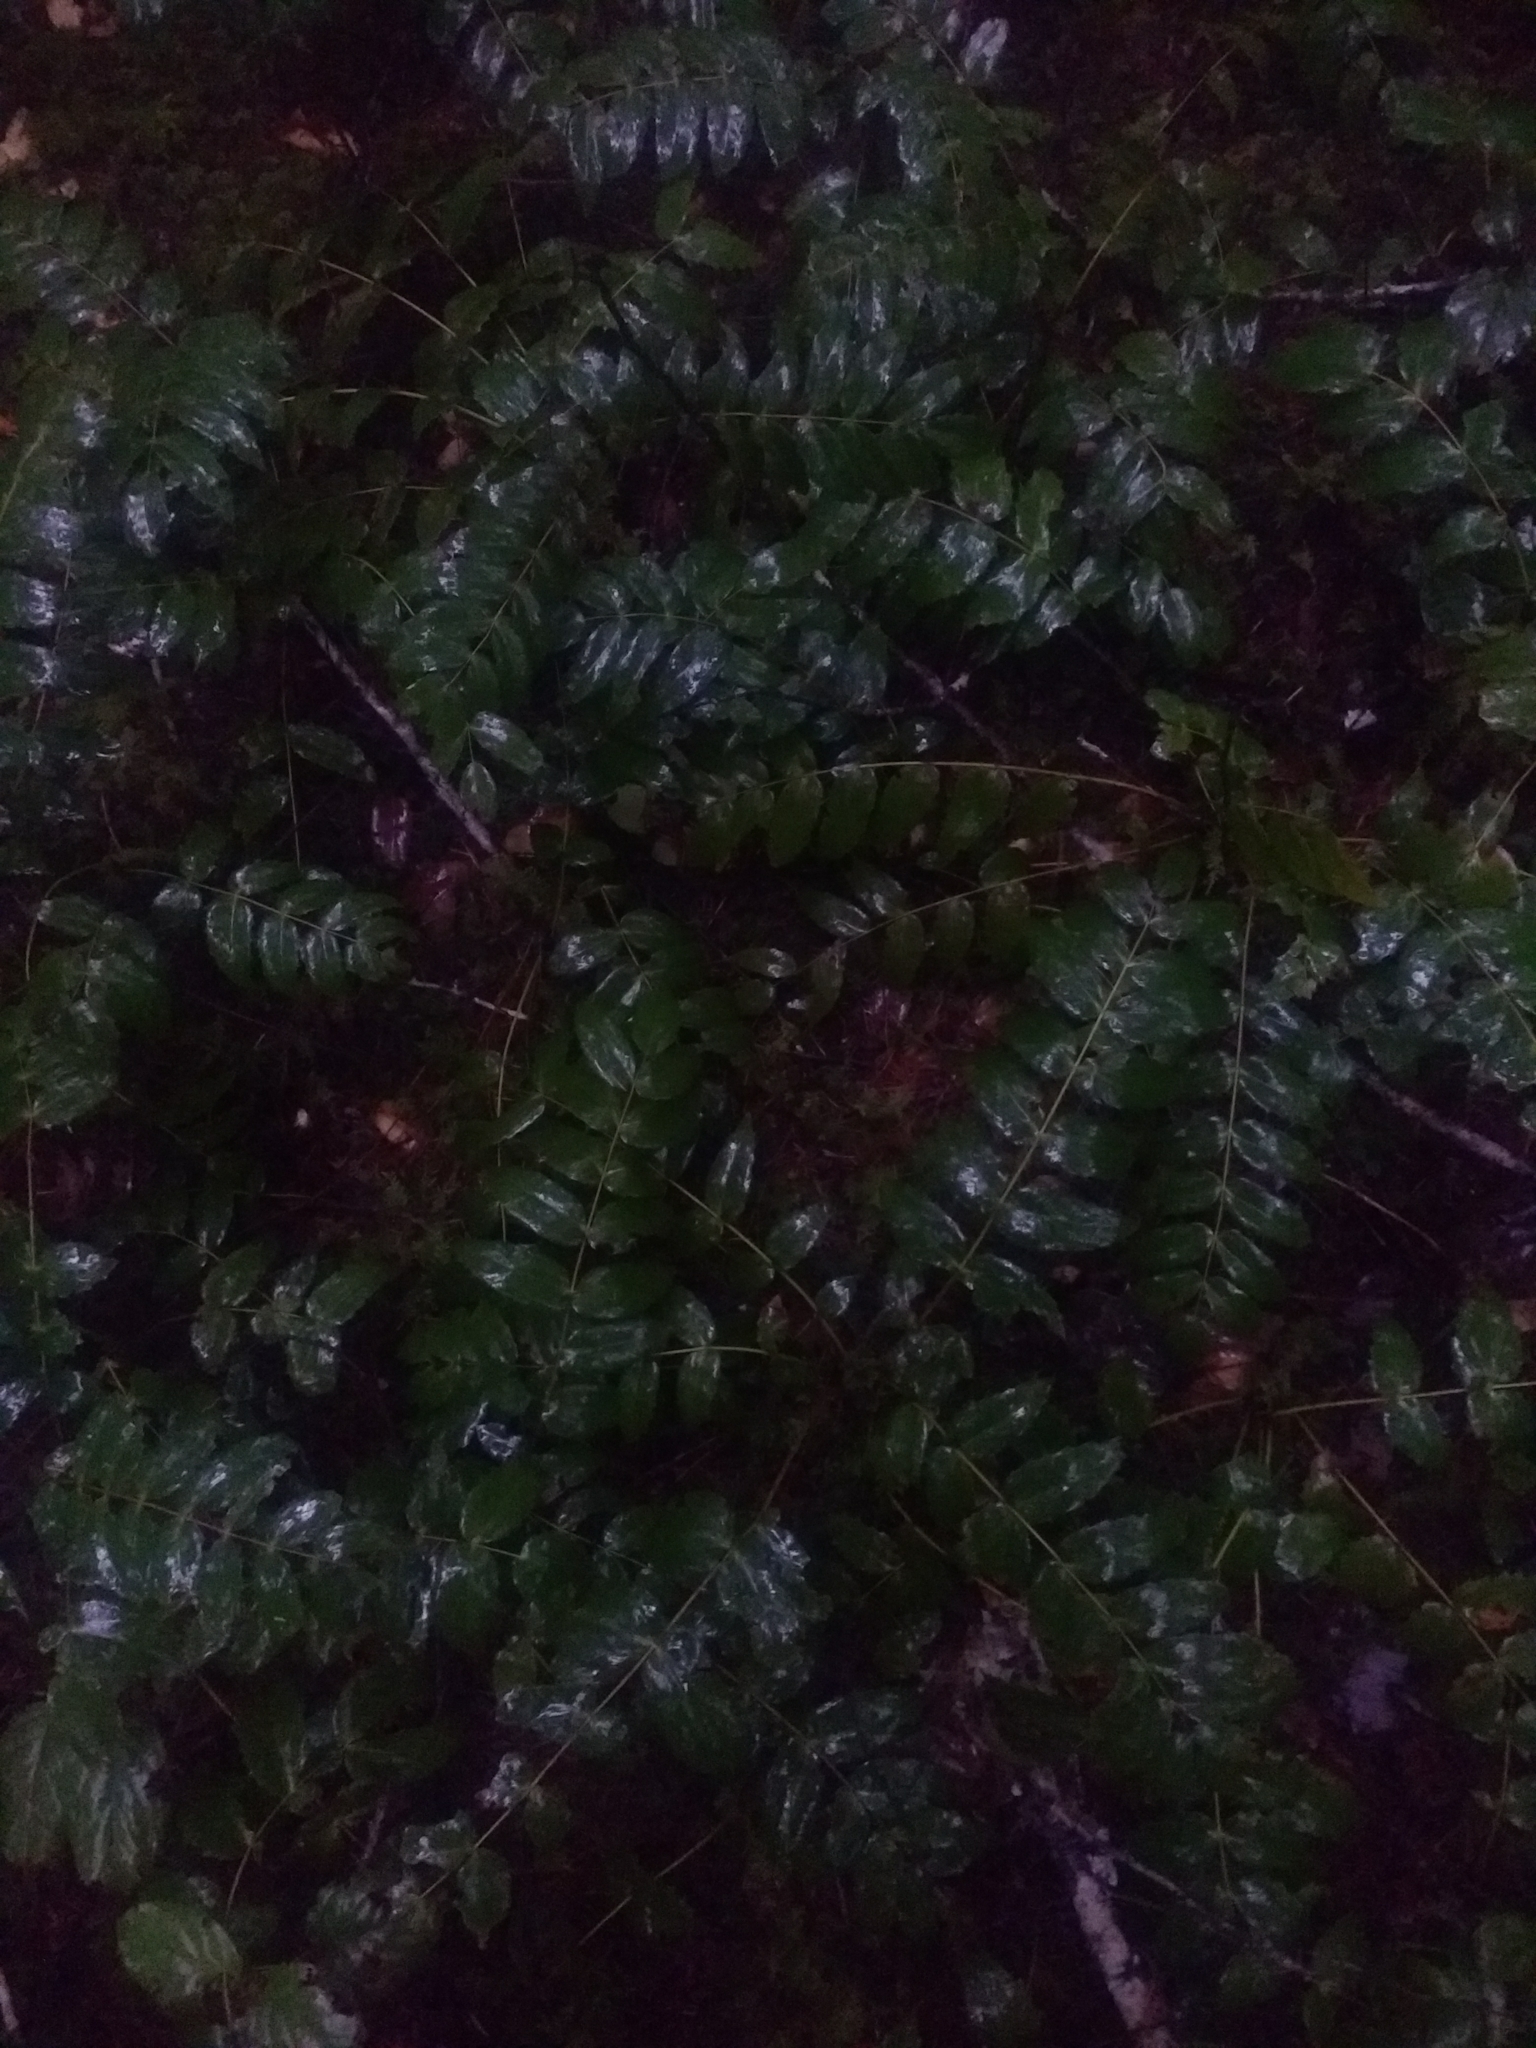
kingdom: Plantae
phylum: Tracheophyta
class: Magnoliopsida
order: Ranunculales
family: Berberidaceae
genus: Mahonia
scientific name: Mahonia nervosa
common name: Cascade oregon-grape
